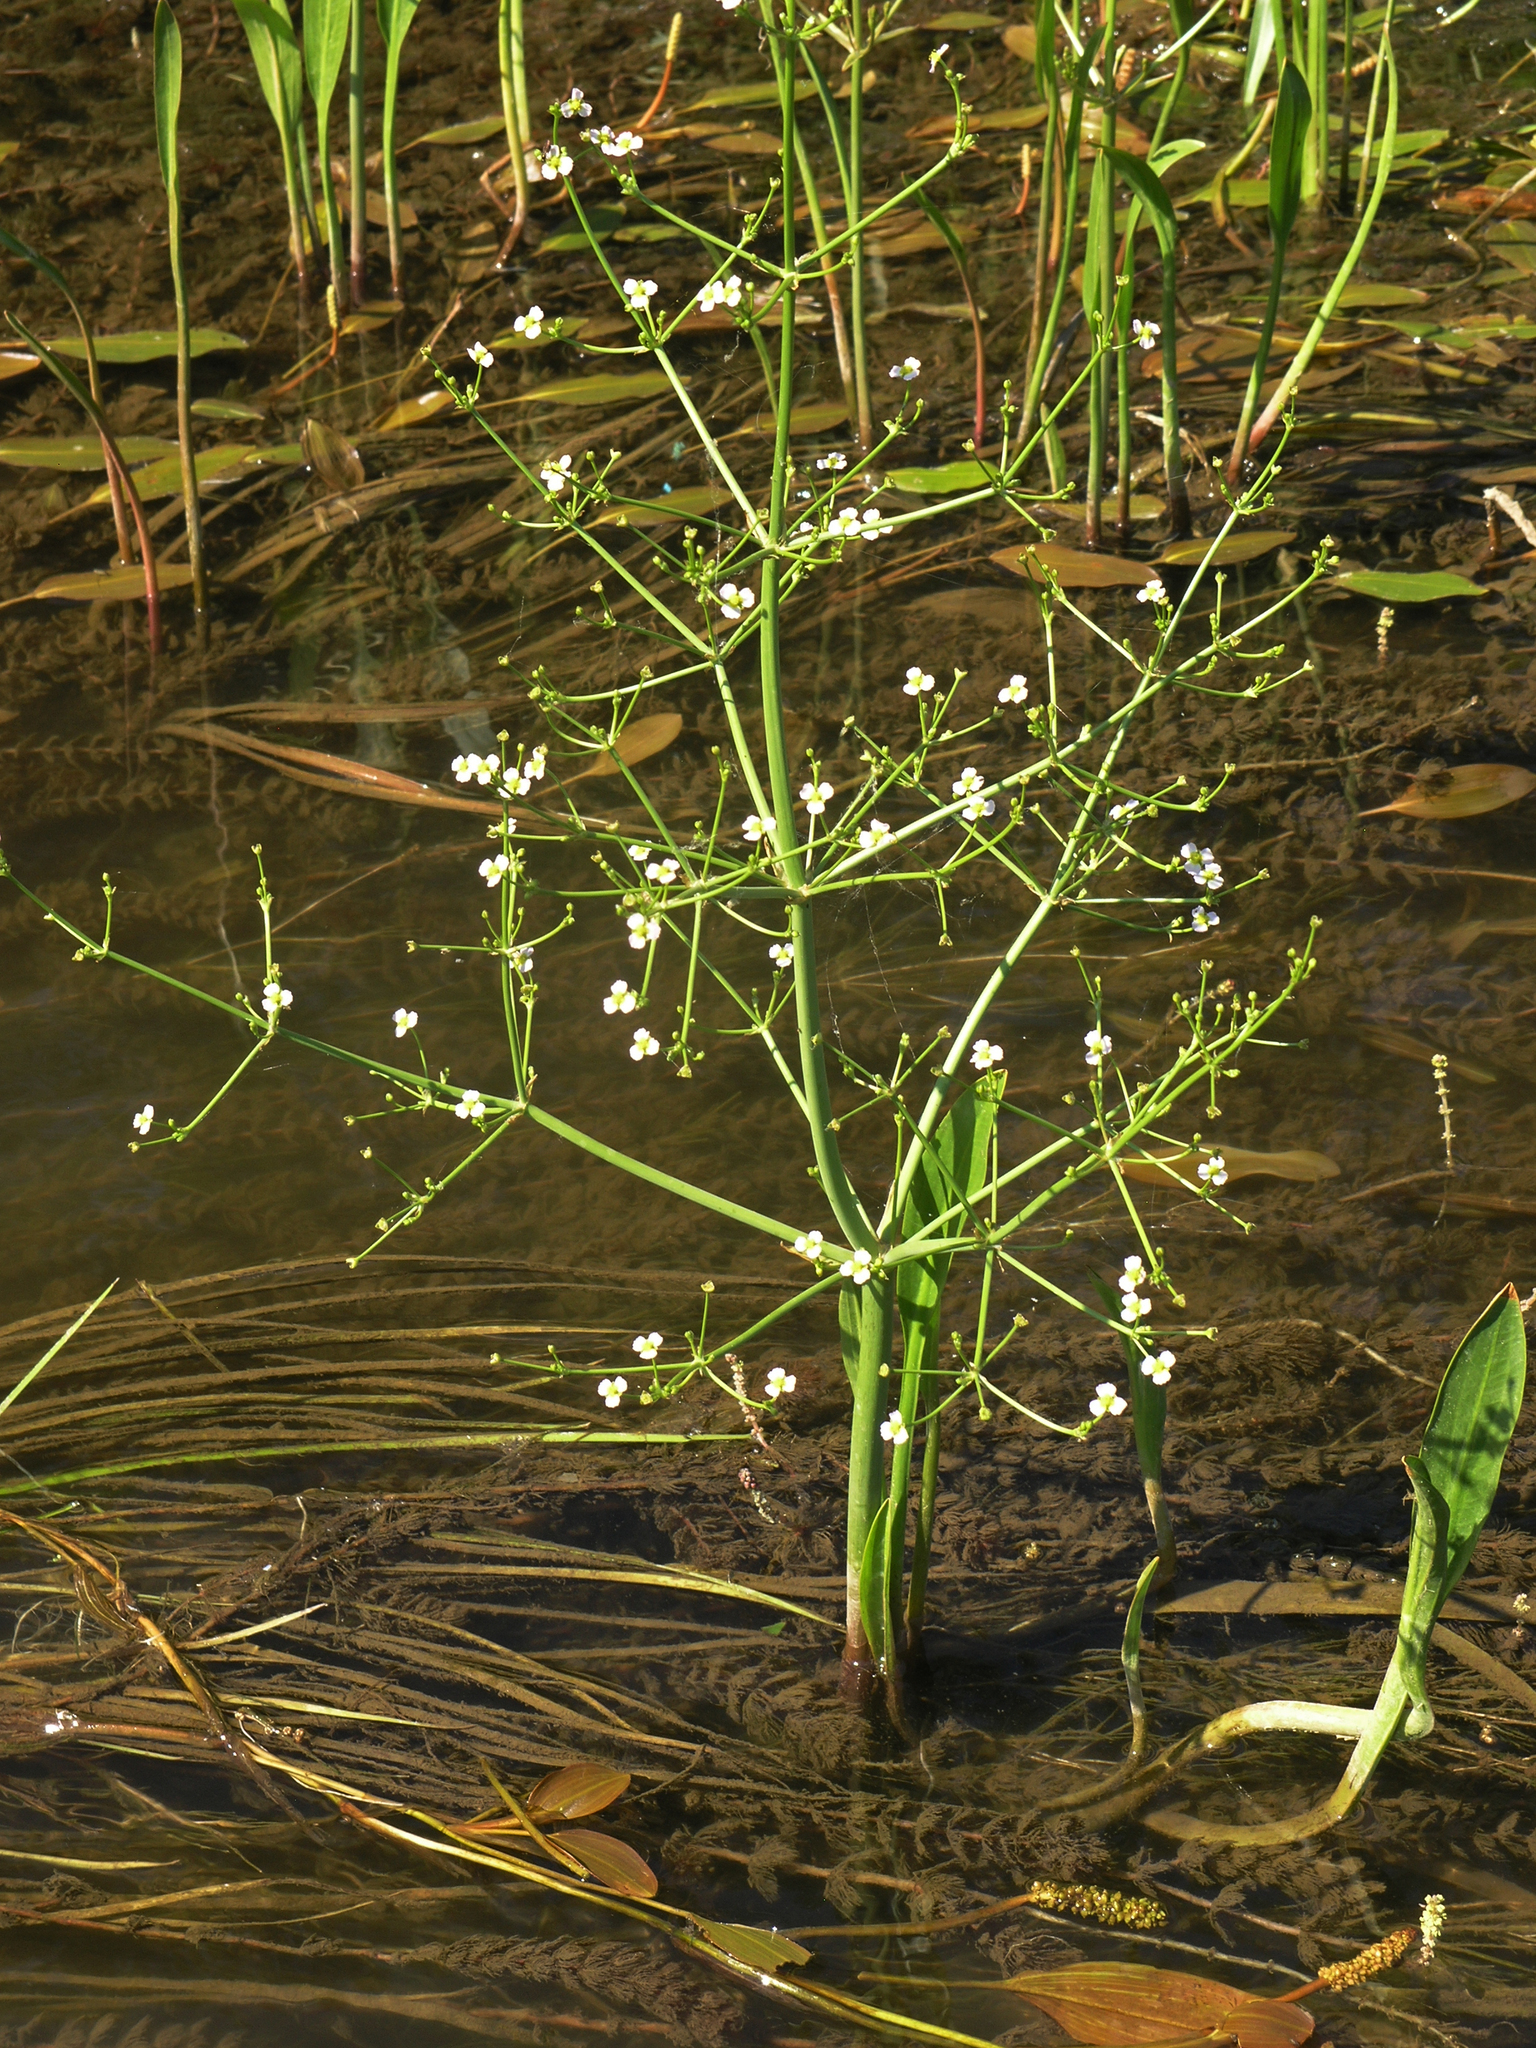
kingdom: Plantae
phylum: Tracheophyta
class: Liliopsida
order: Alismatales
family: Alismataceae
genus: Alisma
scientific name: Alisma gramineum
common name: Ribbon-leaved water-plantain
